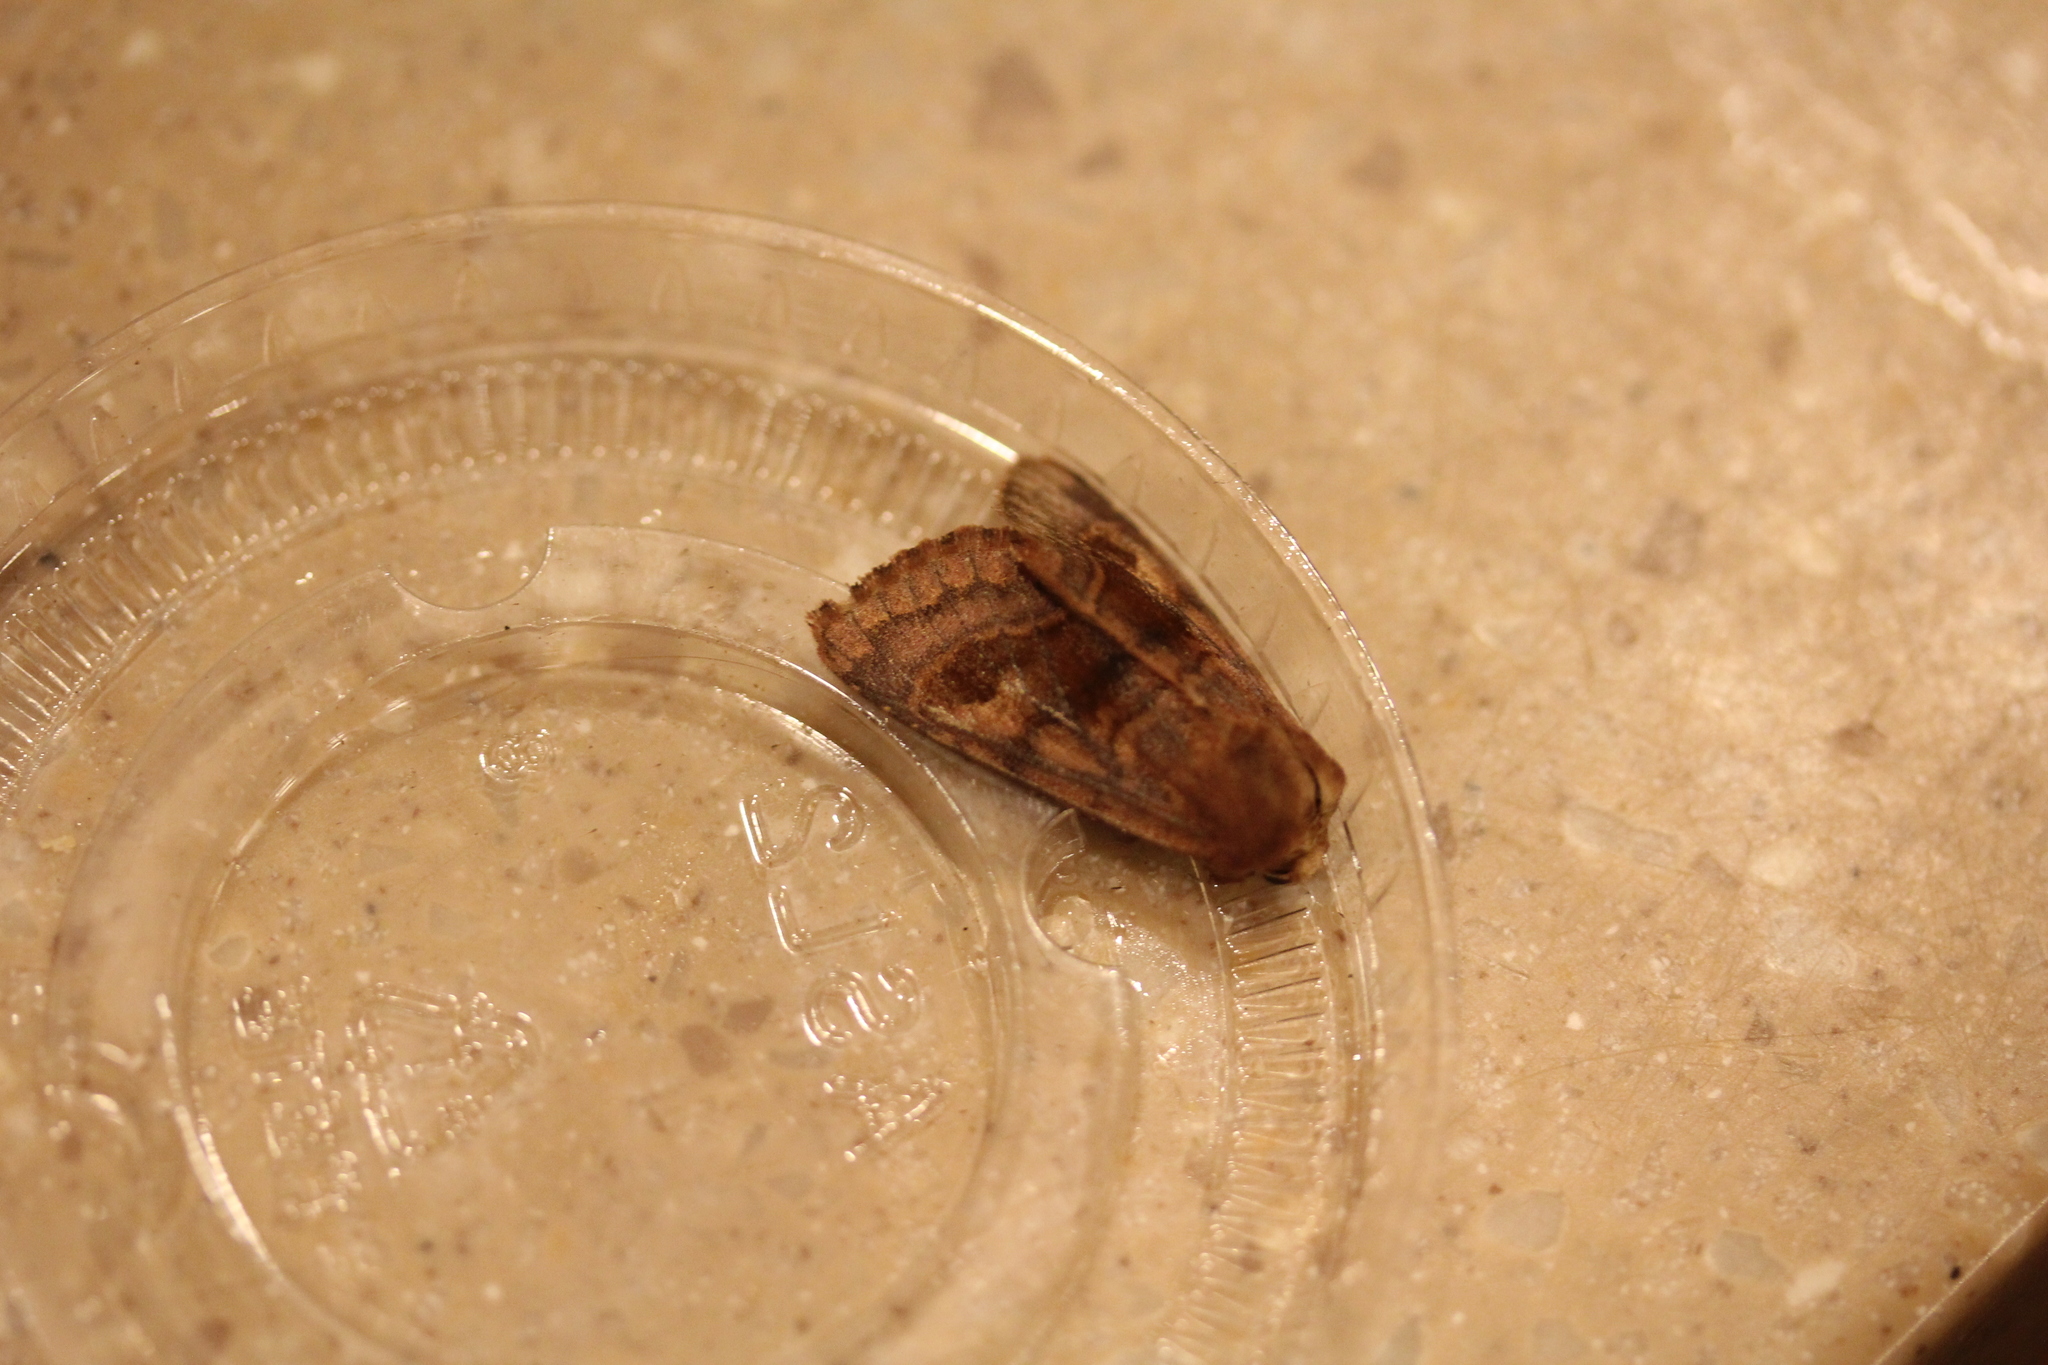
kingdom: Animalia
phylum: Arthropoda
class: Insecta
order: Lepidoptera
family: Noctuidae
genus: Nephelodes
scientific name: Nephelodes minians
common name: Bronzed cutworm
